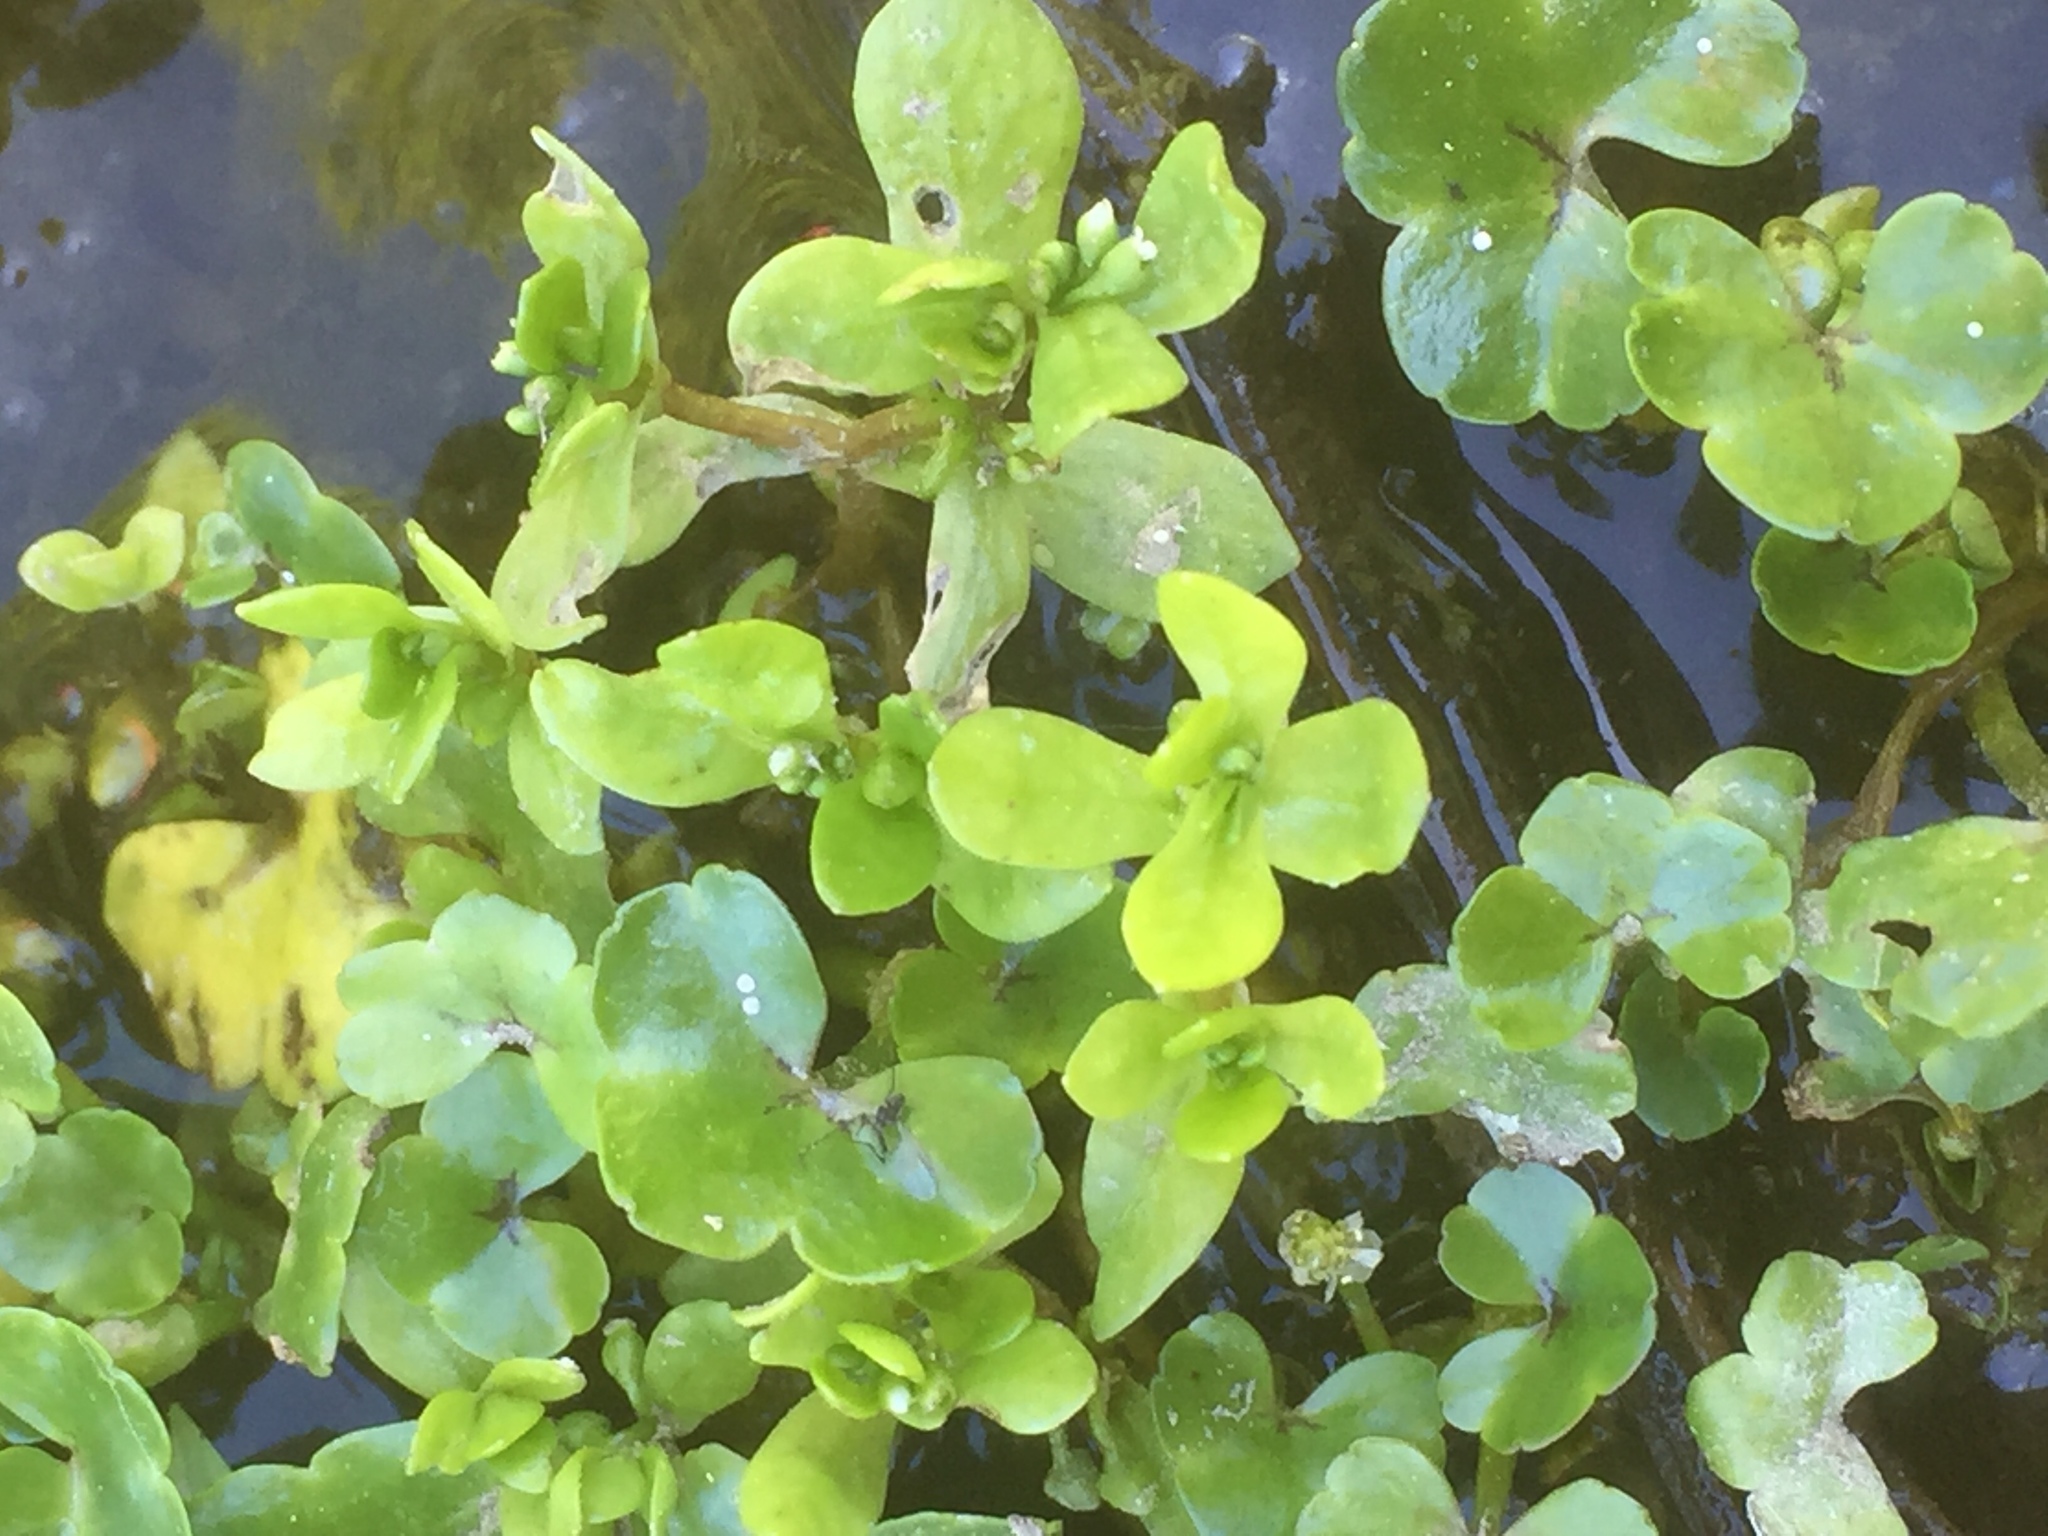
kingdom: Plantae
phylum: Tracheophyta
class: Magnoliopsida
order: Ranunculales
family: Ranunculaceae
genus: Ranunculus
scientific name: Ranunculus hederaceus
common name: Ivy-leaved crowfoot
